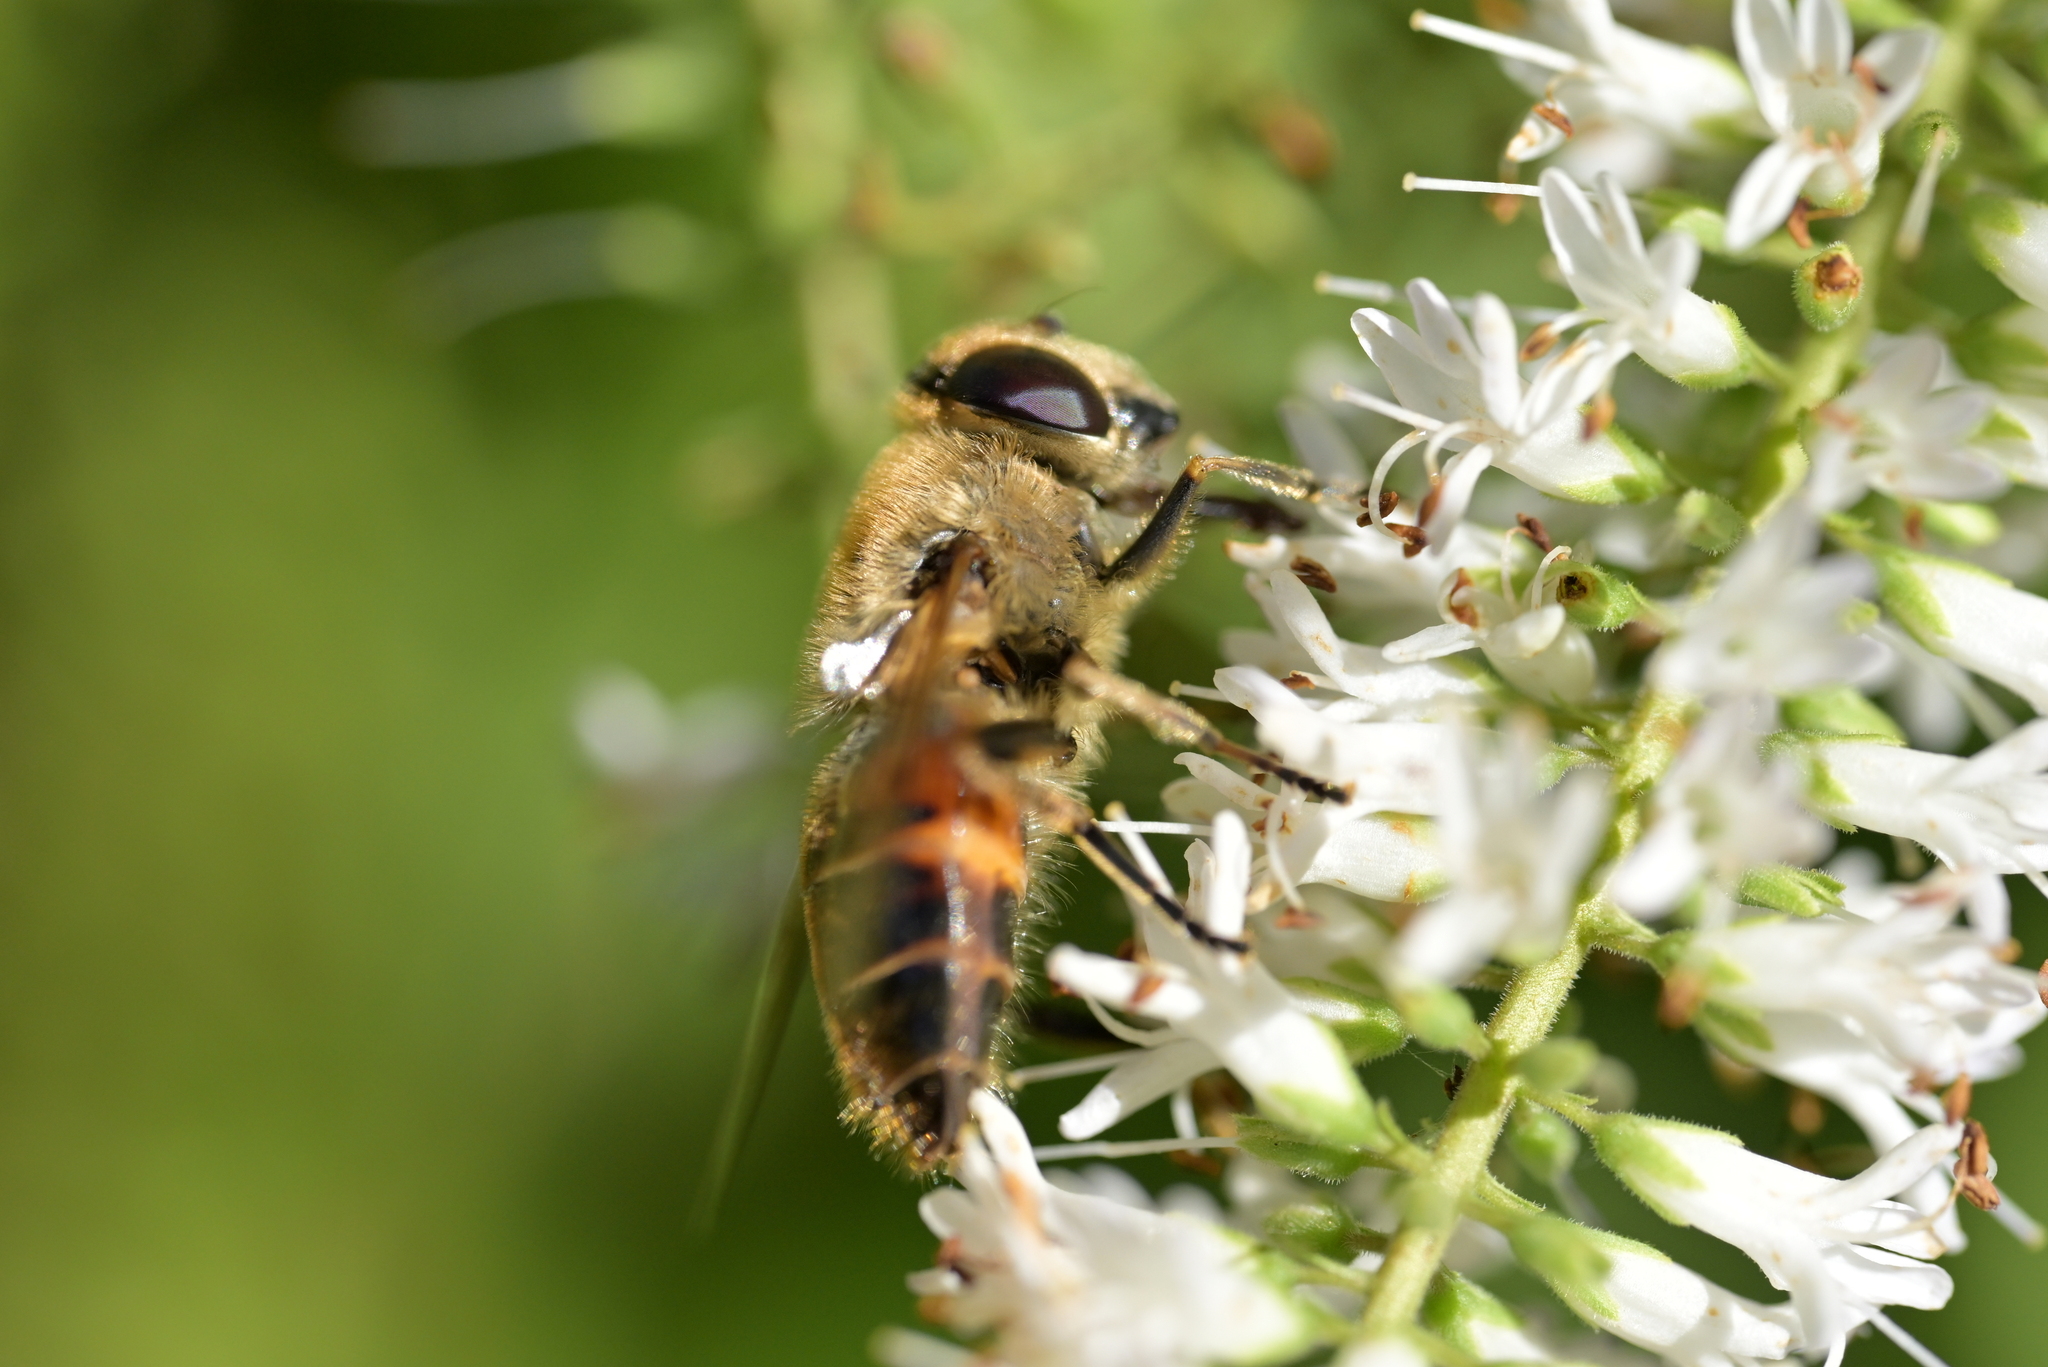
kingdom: Animalia
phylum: Arthropoda
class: Insecta
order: Diptera
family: Syrphidae
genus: Eristalis
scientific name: Eristalis tenax
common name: Drone fly
